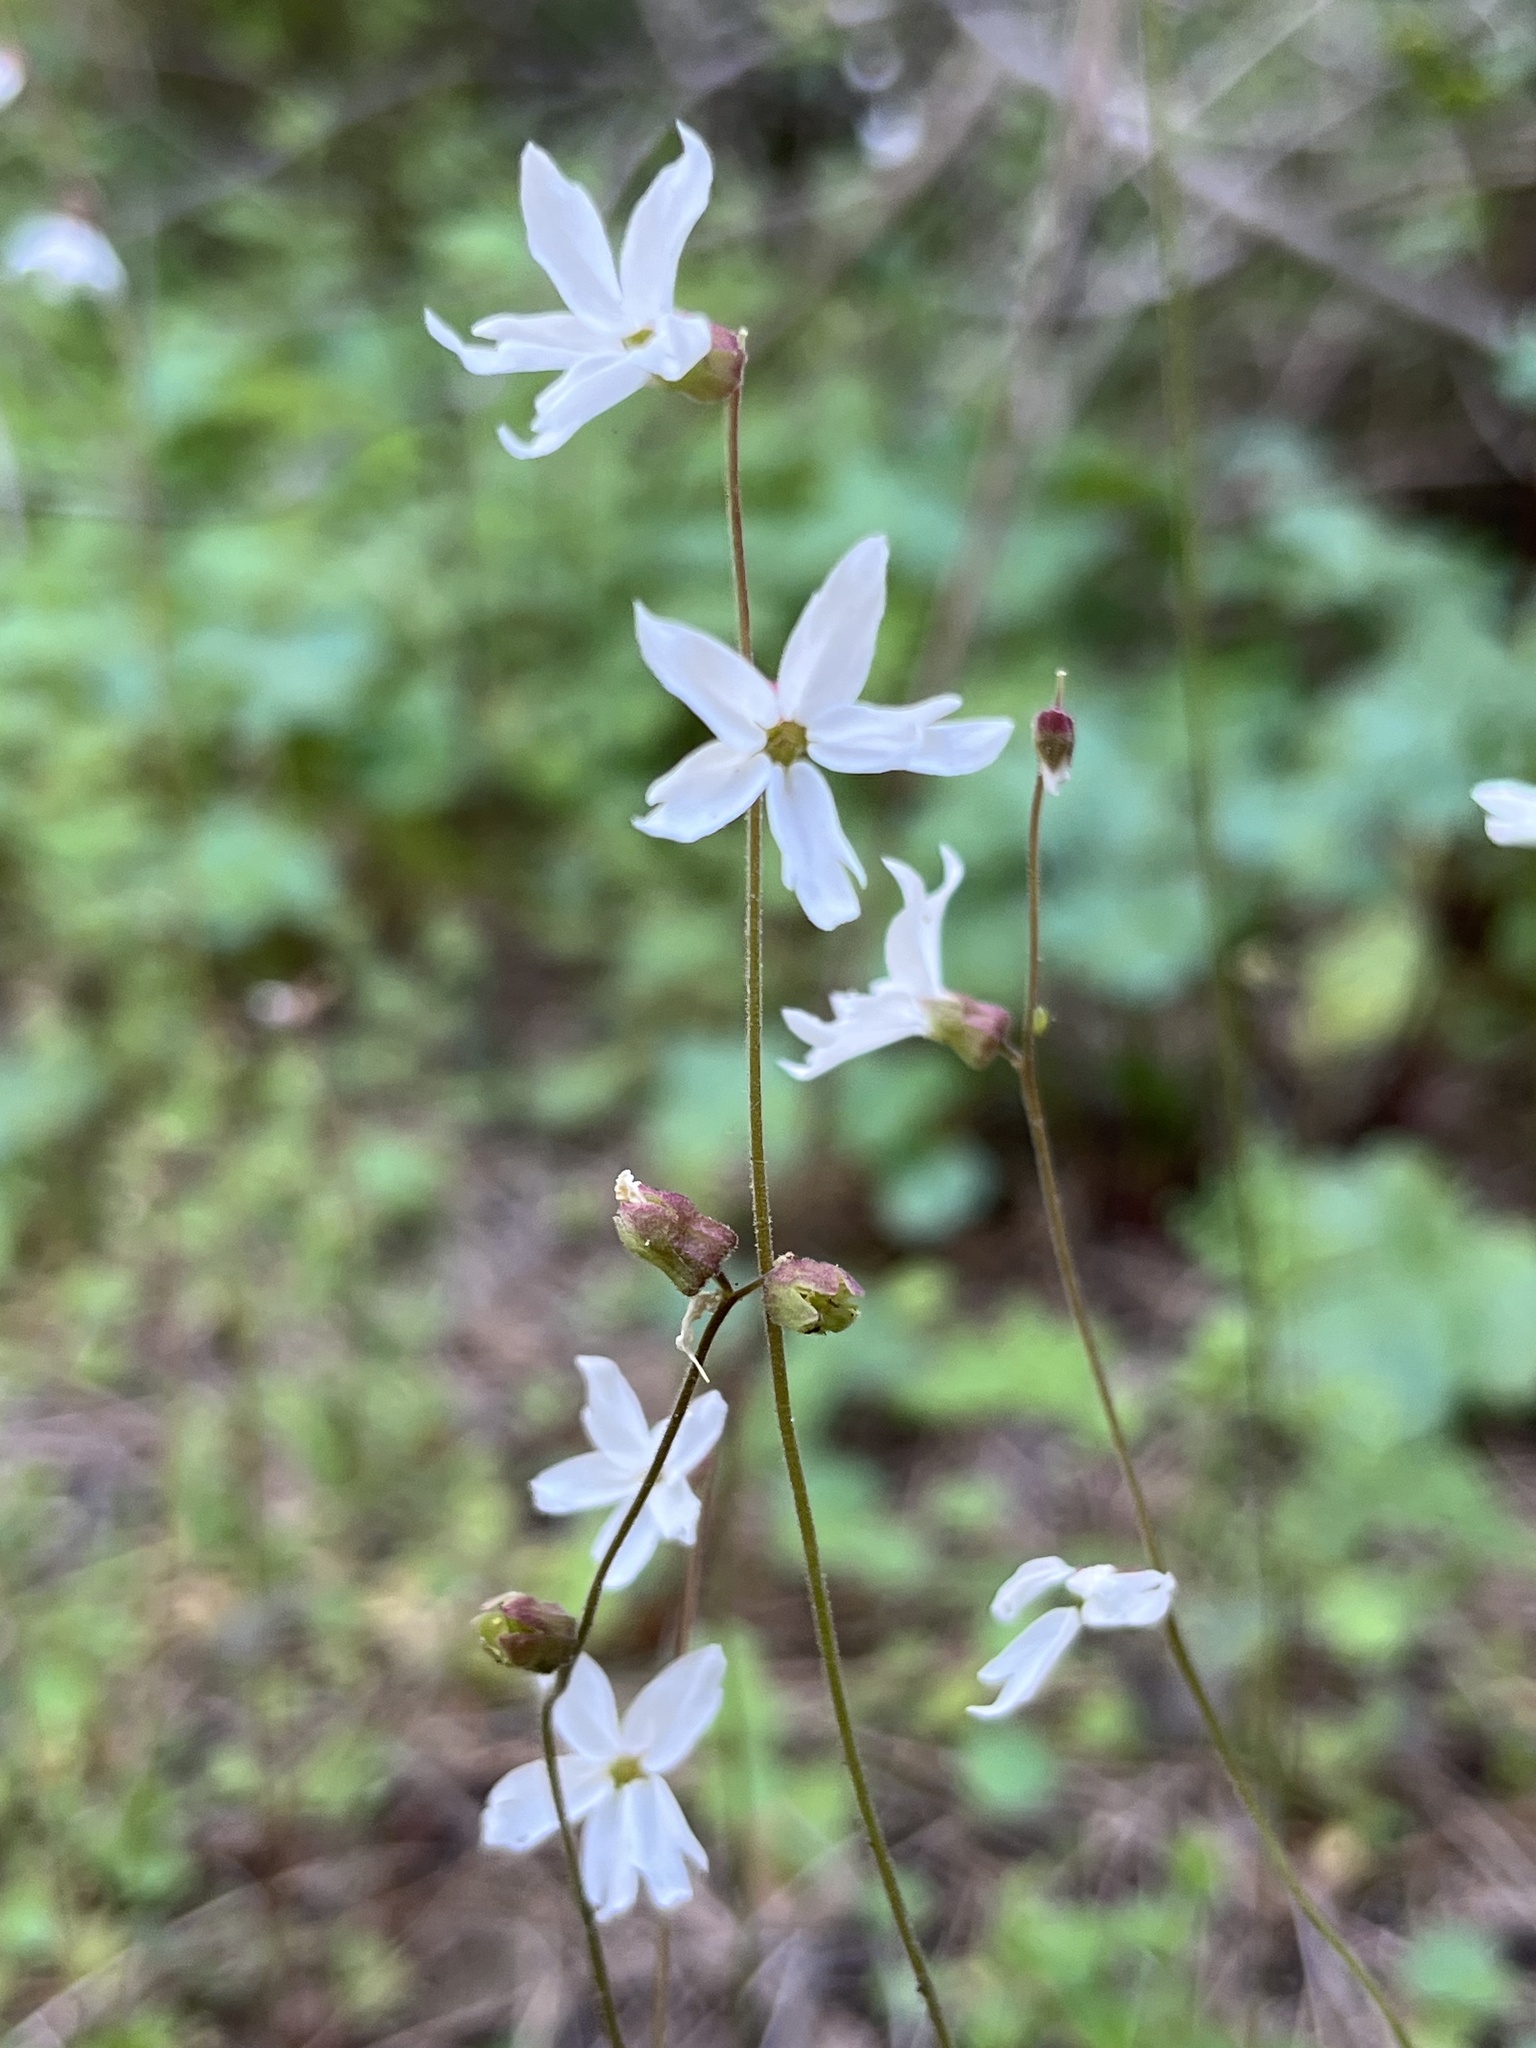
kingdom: Plantae
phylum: Tracheophyta
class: Magnoliopsida
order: Saxifragales
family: Saxifragaceae
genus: Lithophragma
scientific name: Lithophragma heterophyllum
